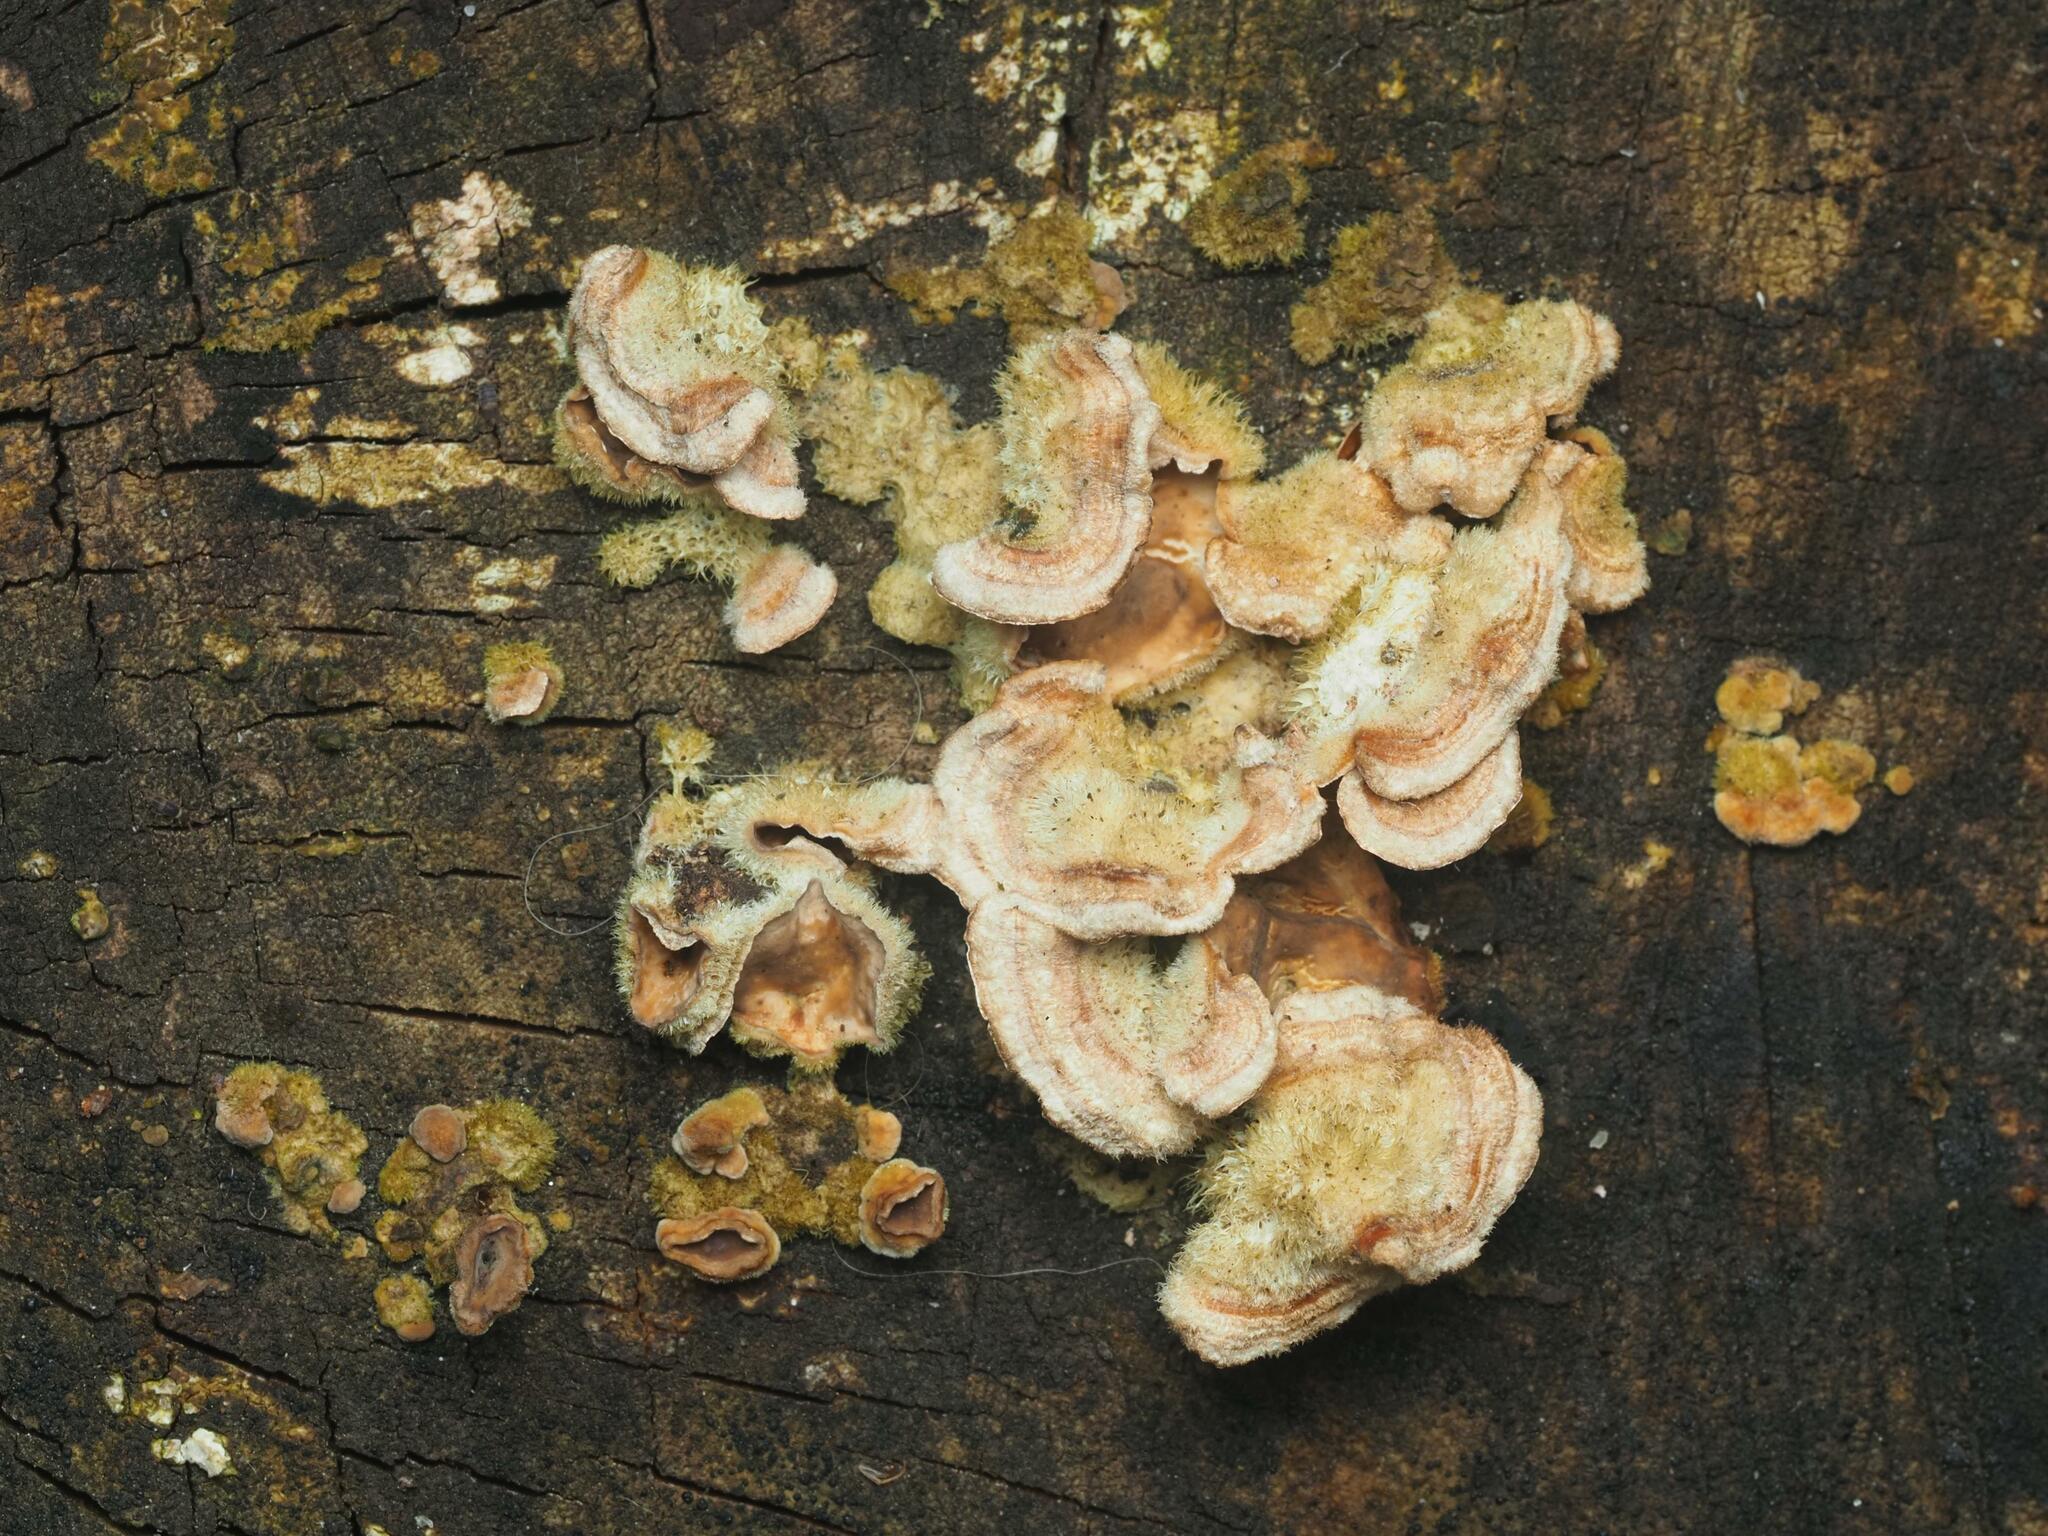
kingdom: Fungi
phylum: Basidiomycota
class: Agaricomycetes
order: Russulales
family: Stereaceae
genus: Stereum
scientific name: Stereum hirsutum
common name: Hairy curtain crust
